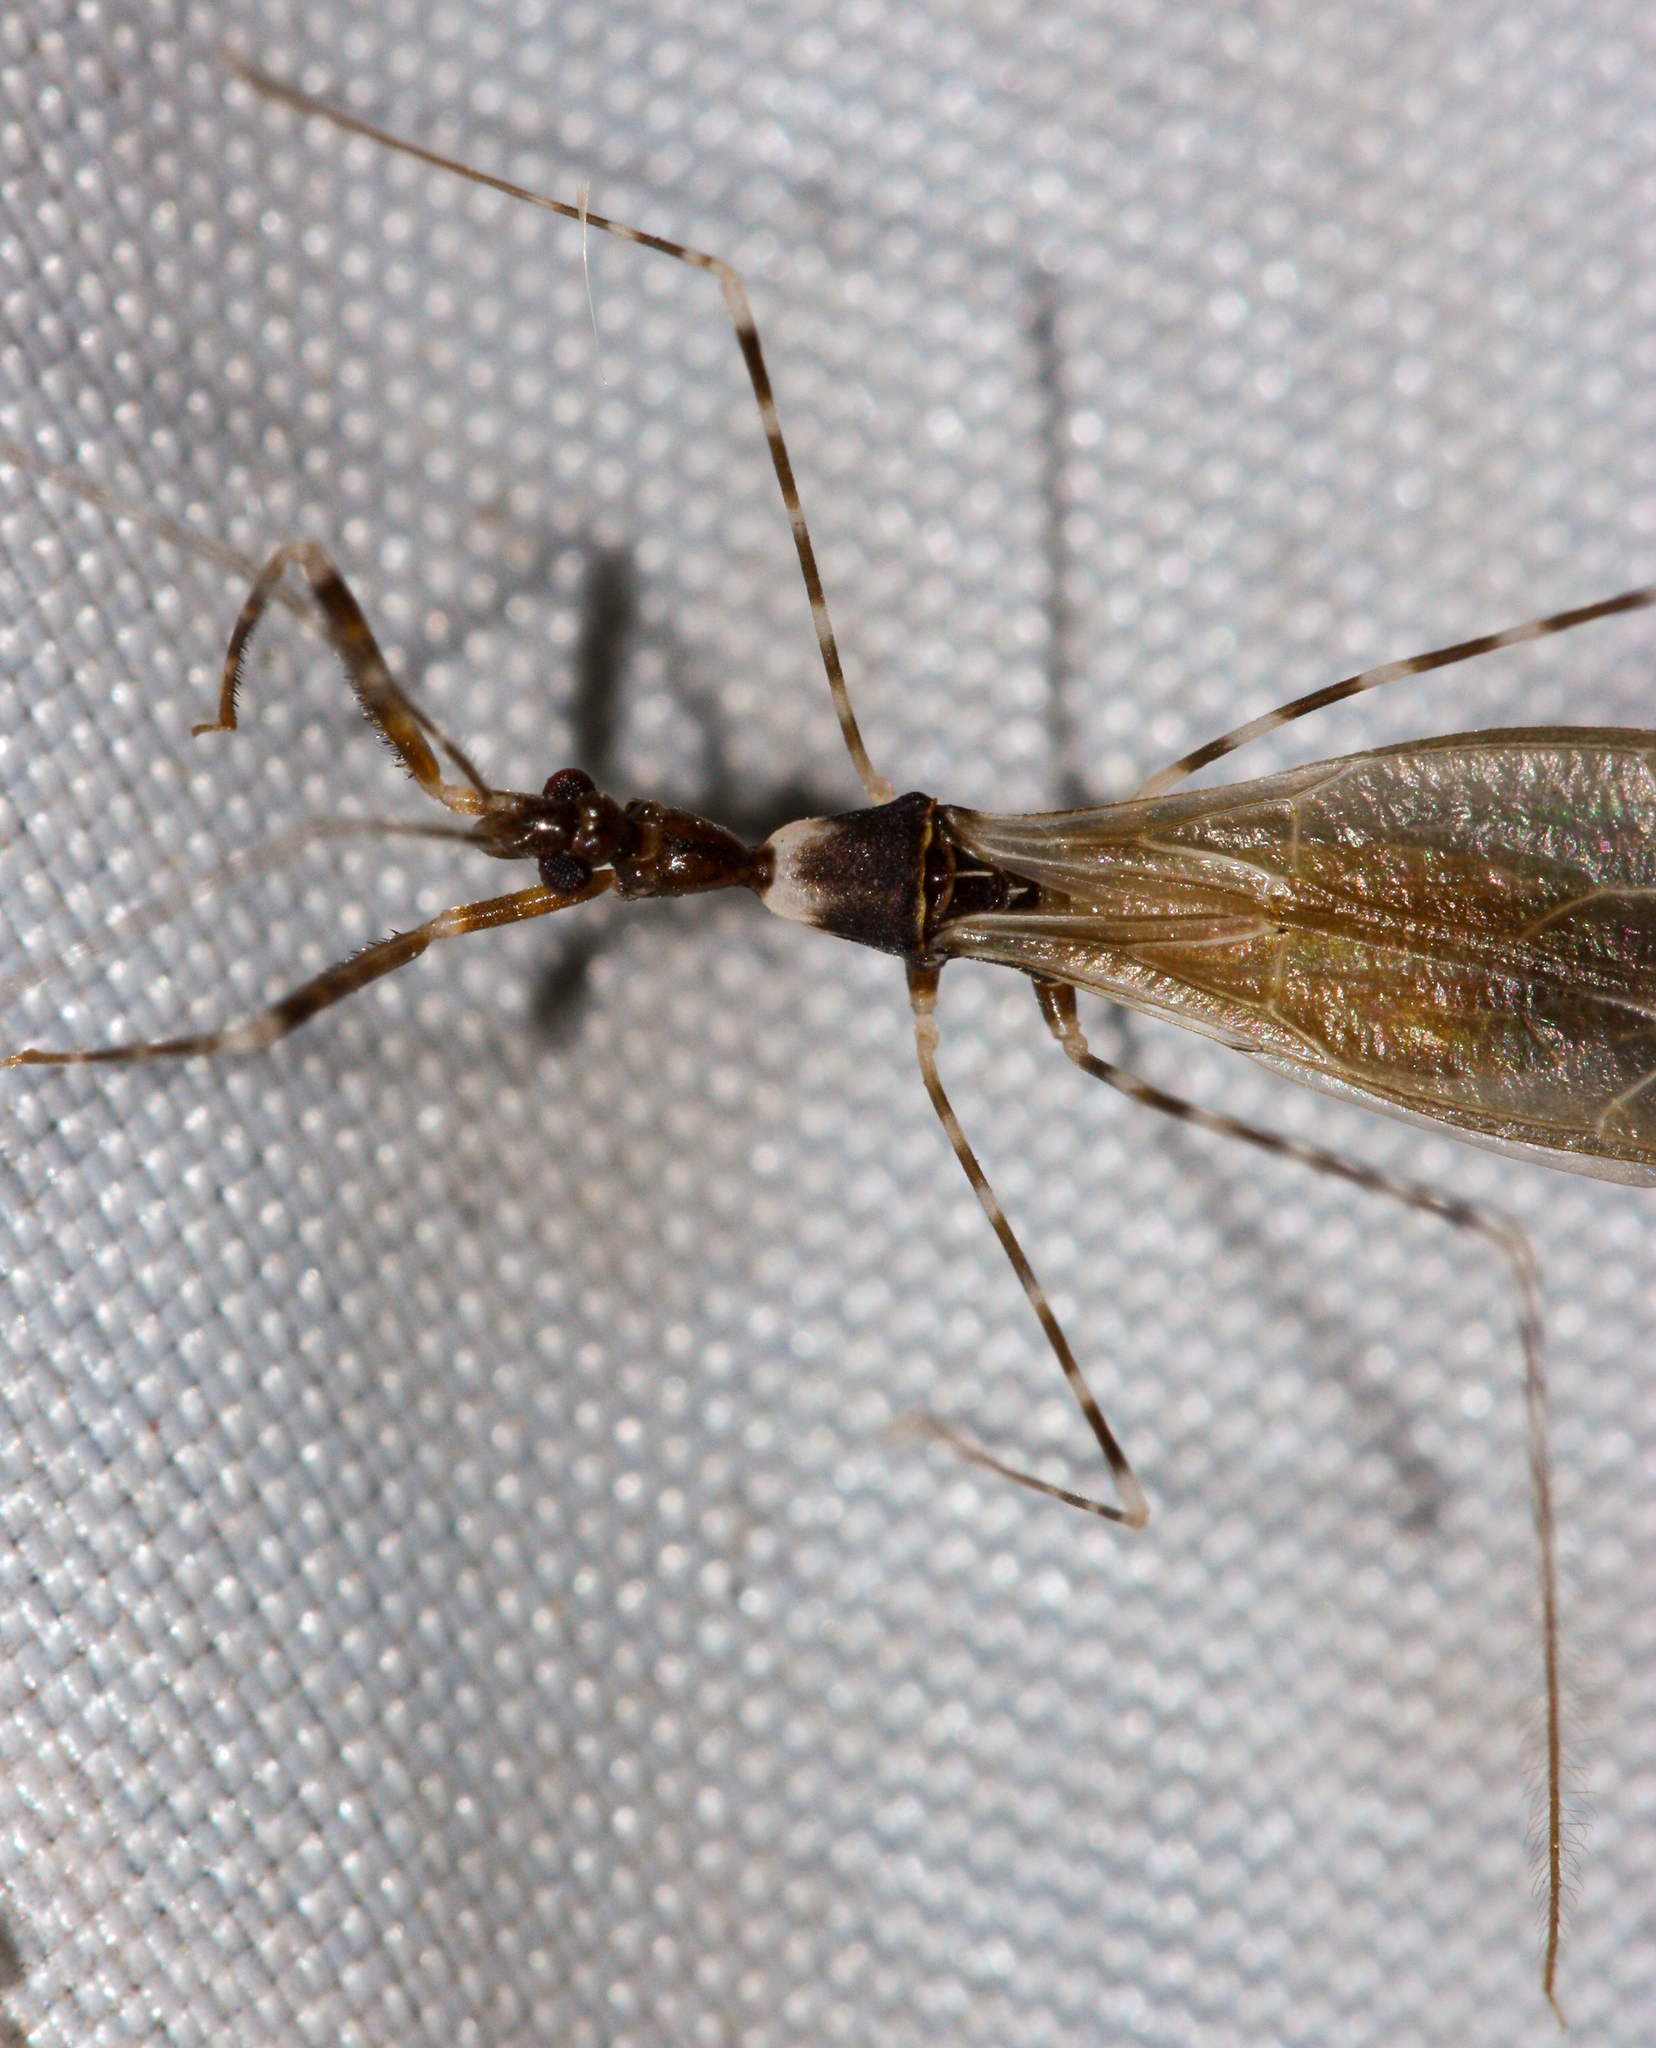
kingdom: Animalia
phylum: Arthropoda
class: Insecta
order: Hemiptera
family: Reduviidae
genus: Stenolemoides
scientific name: Stenolemoides arizonensis
